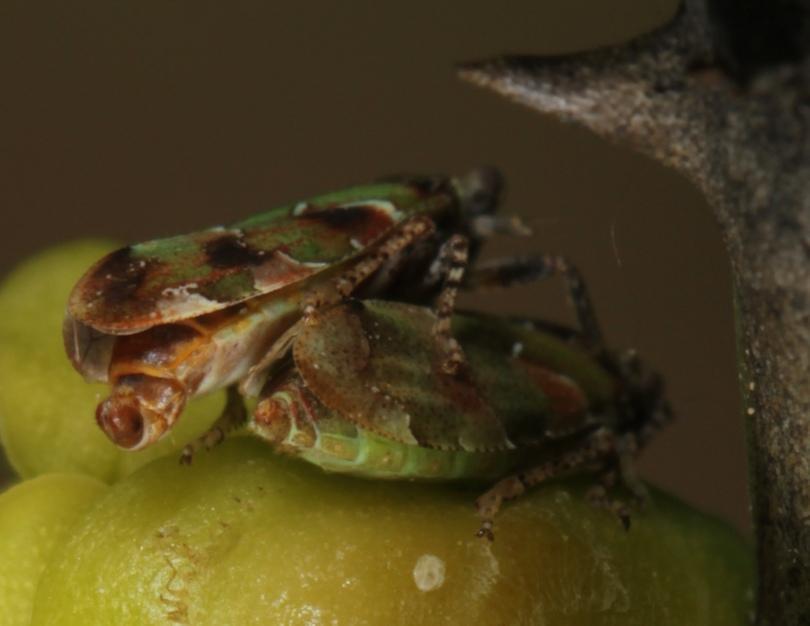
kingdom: Animalia
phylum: Arthropoda
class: Insecta
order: Hemiptera
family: Tettigometridae
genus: Nototettigometra
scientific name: Nototettigometra patruelis
